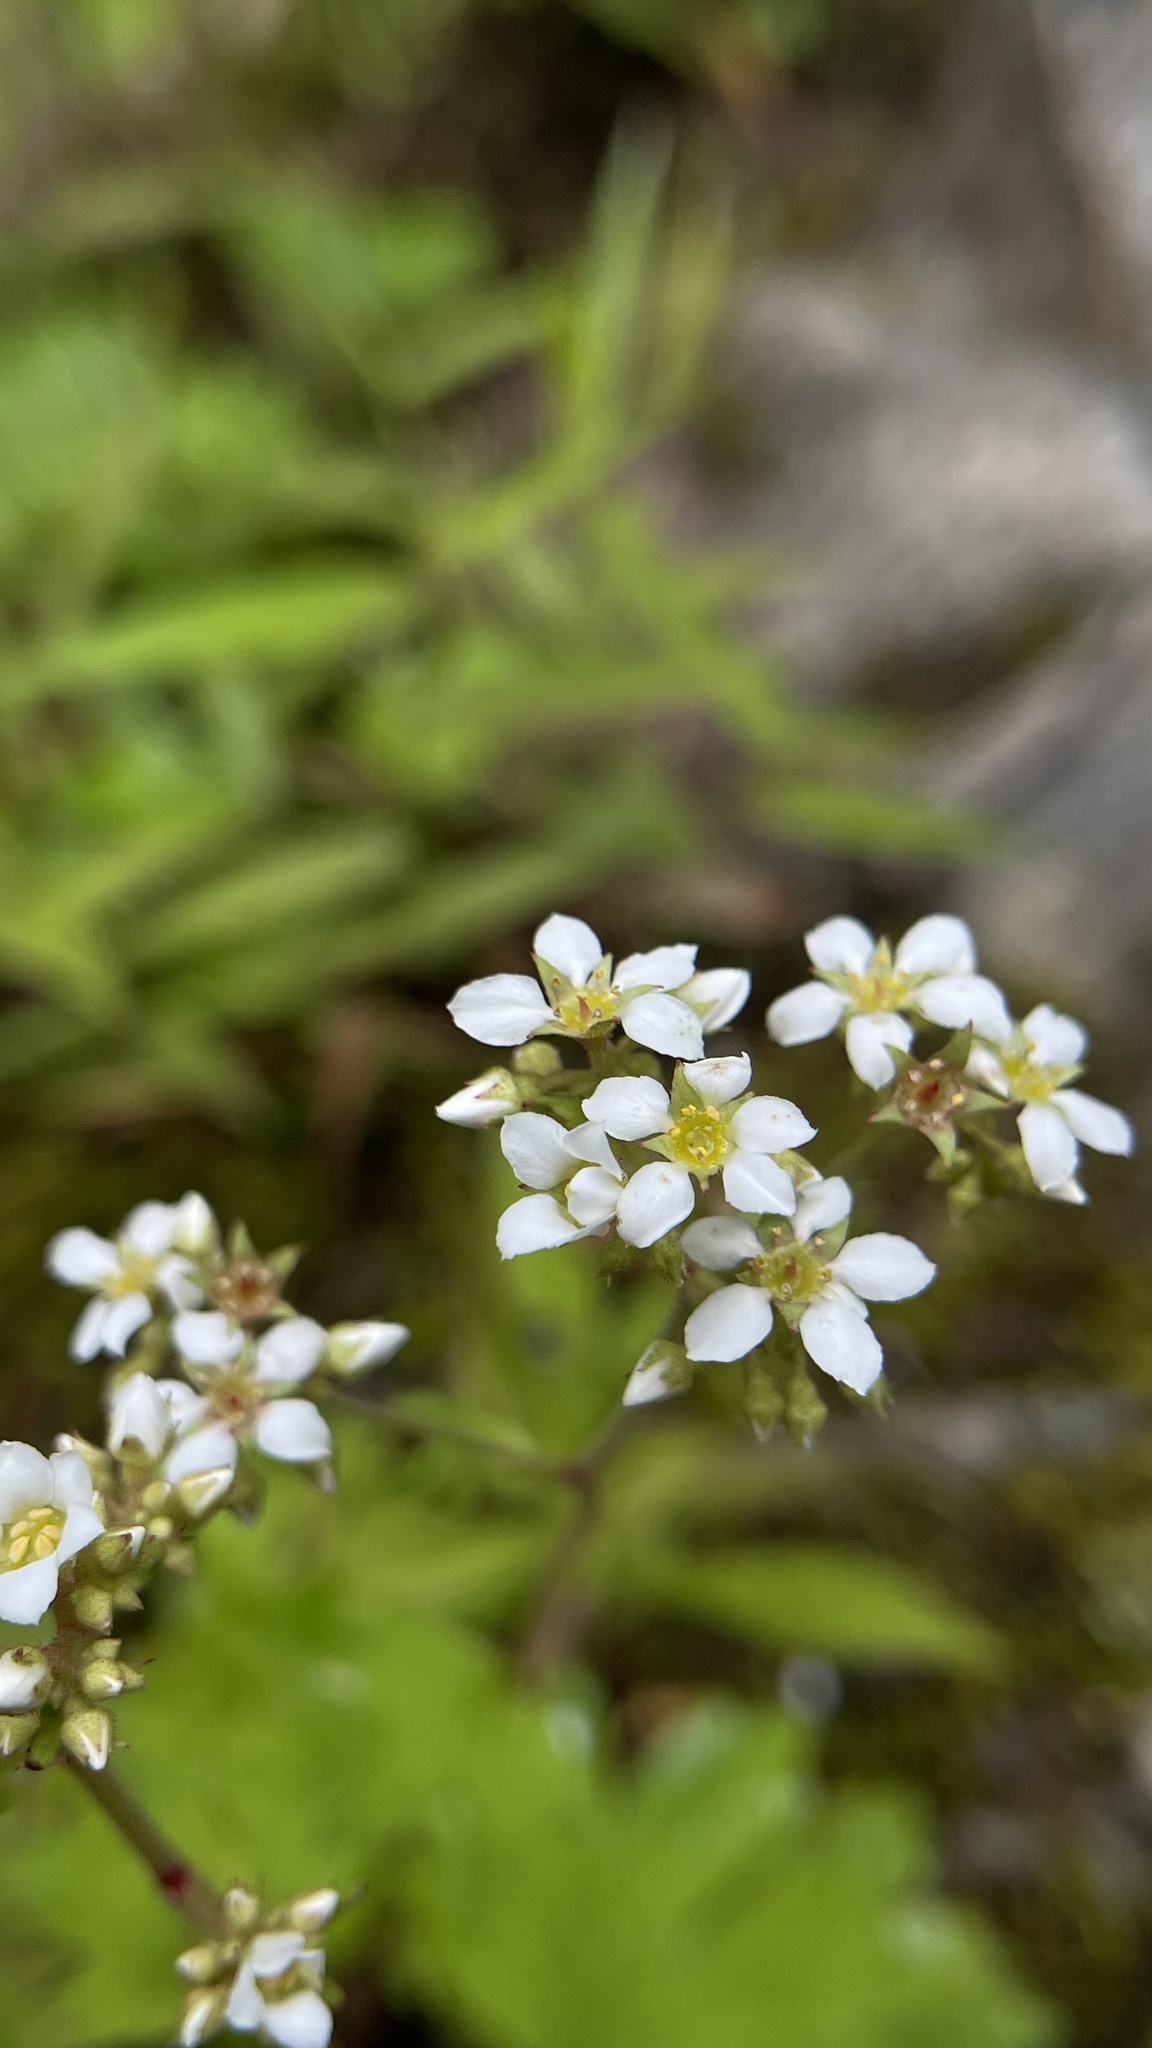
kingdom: Plantae
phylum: Tracheophyta
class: Magnoliopsida
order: Saxifragales
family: Saxifragaceae
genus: Boykinia
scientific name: Boykinia aconitifolia
